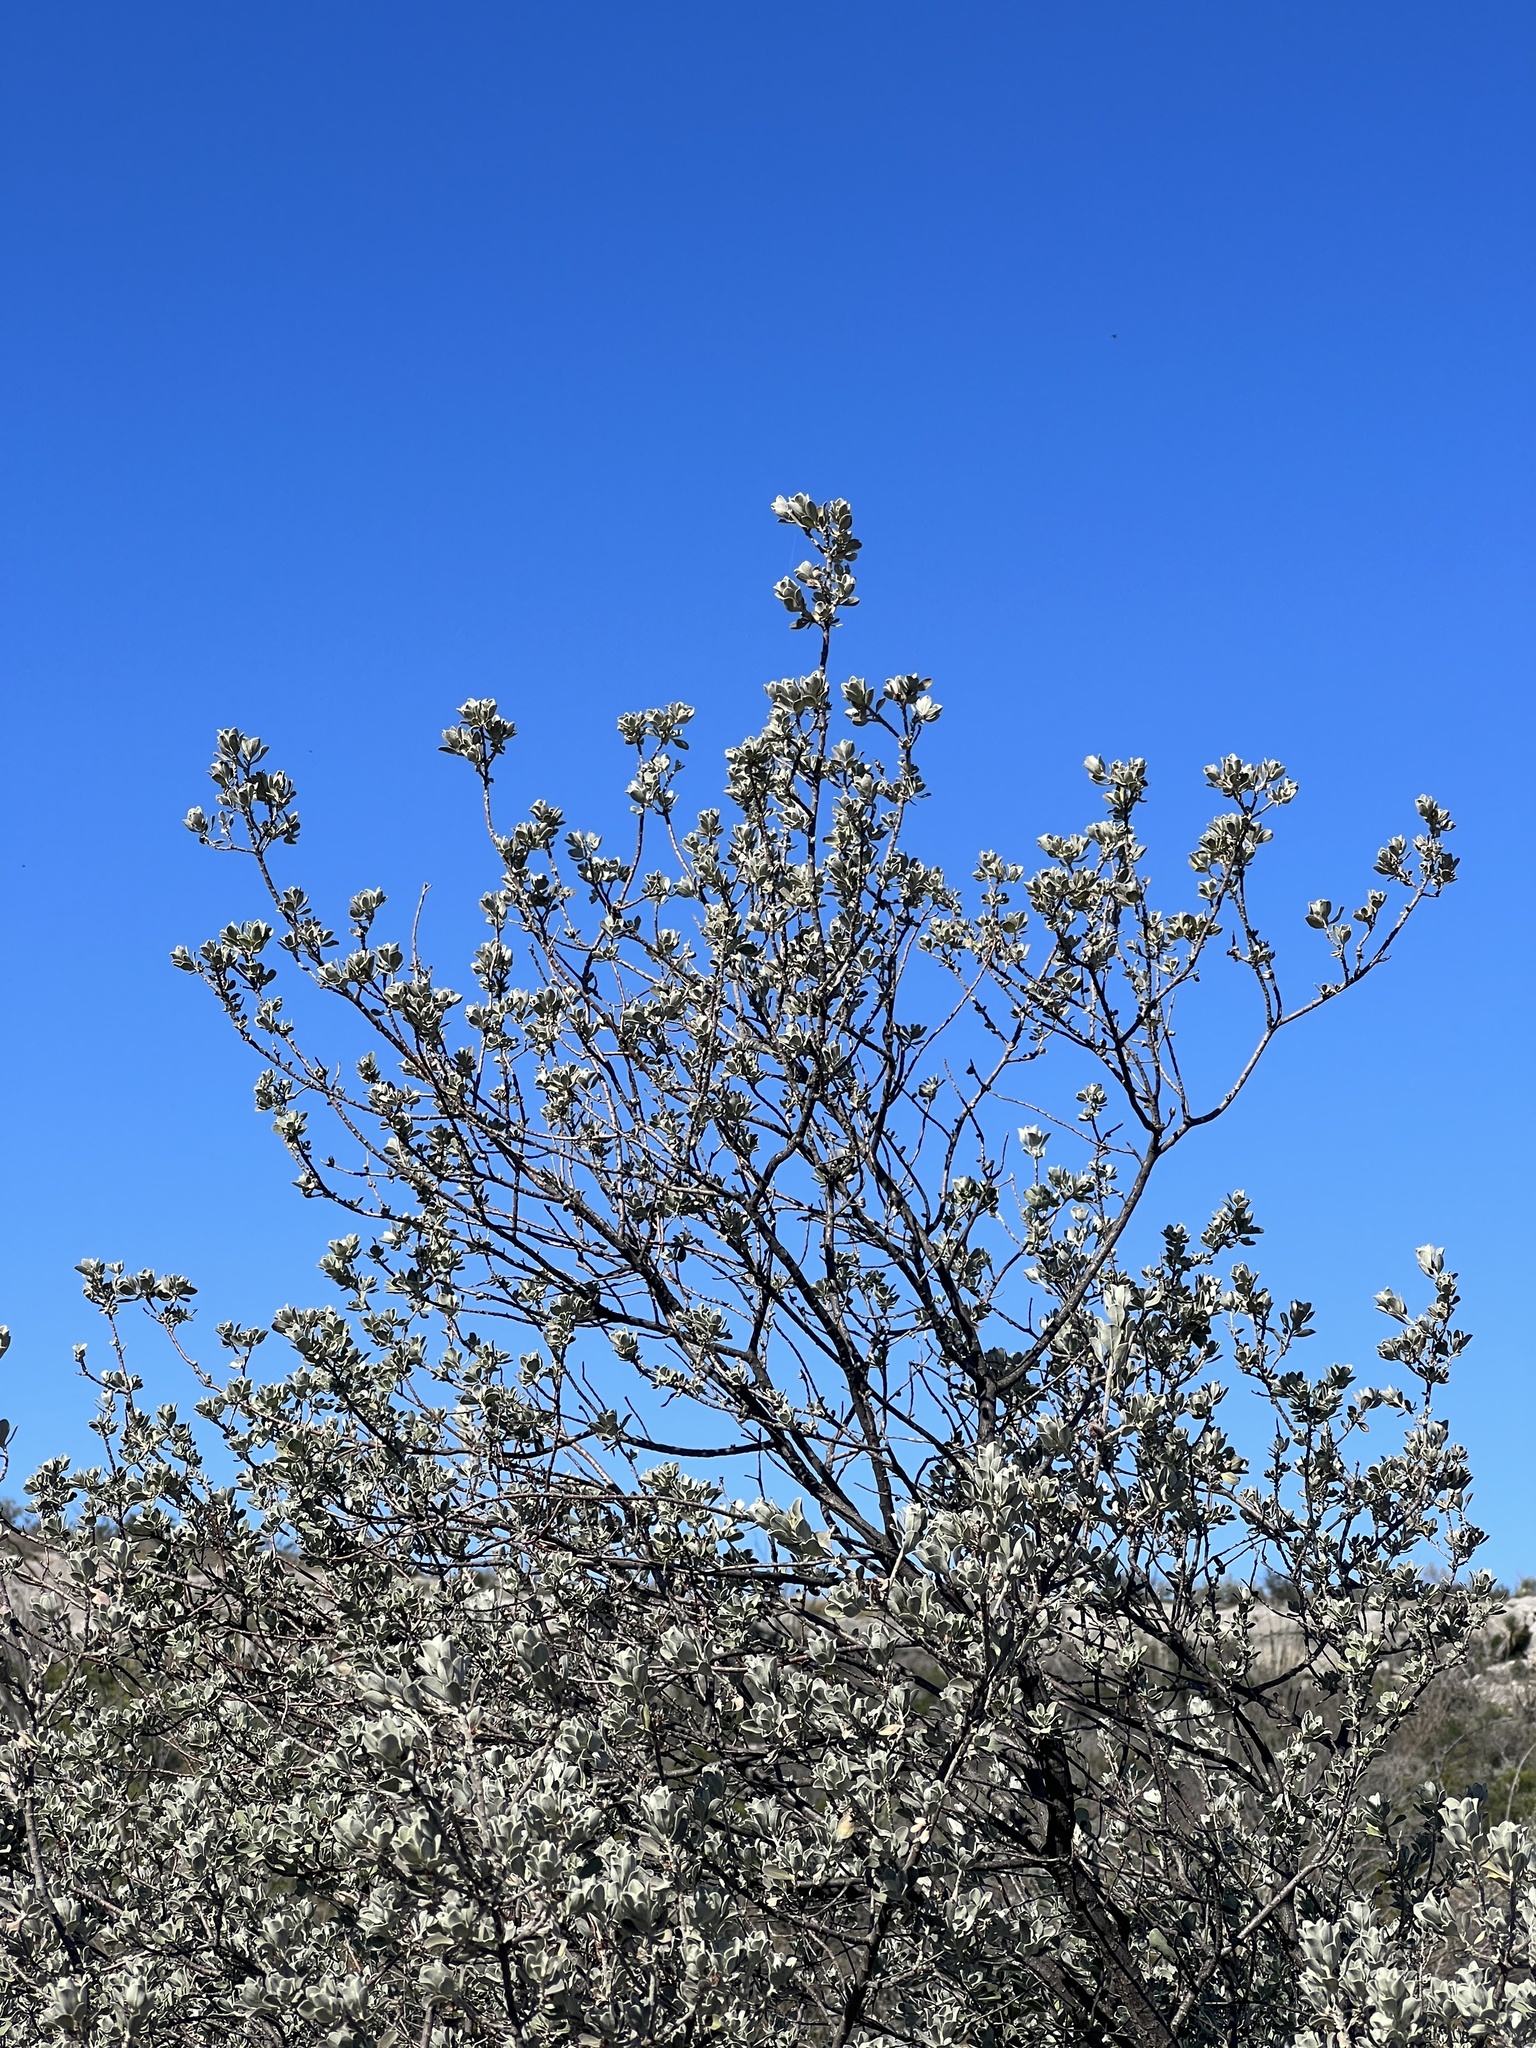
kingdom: Plantae
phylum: Tracheophyta
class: Magnoliopsida
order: Lamiales
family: Scrophulariaceae
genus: Leucophyllum
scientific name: Leucophyllum frutescens
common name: Texas silverleaf
